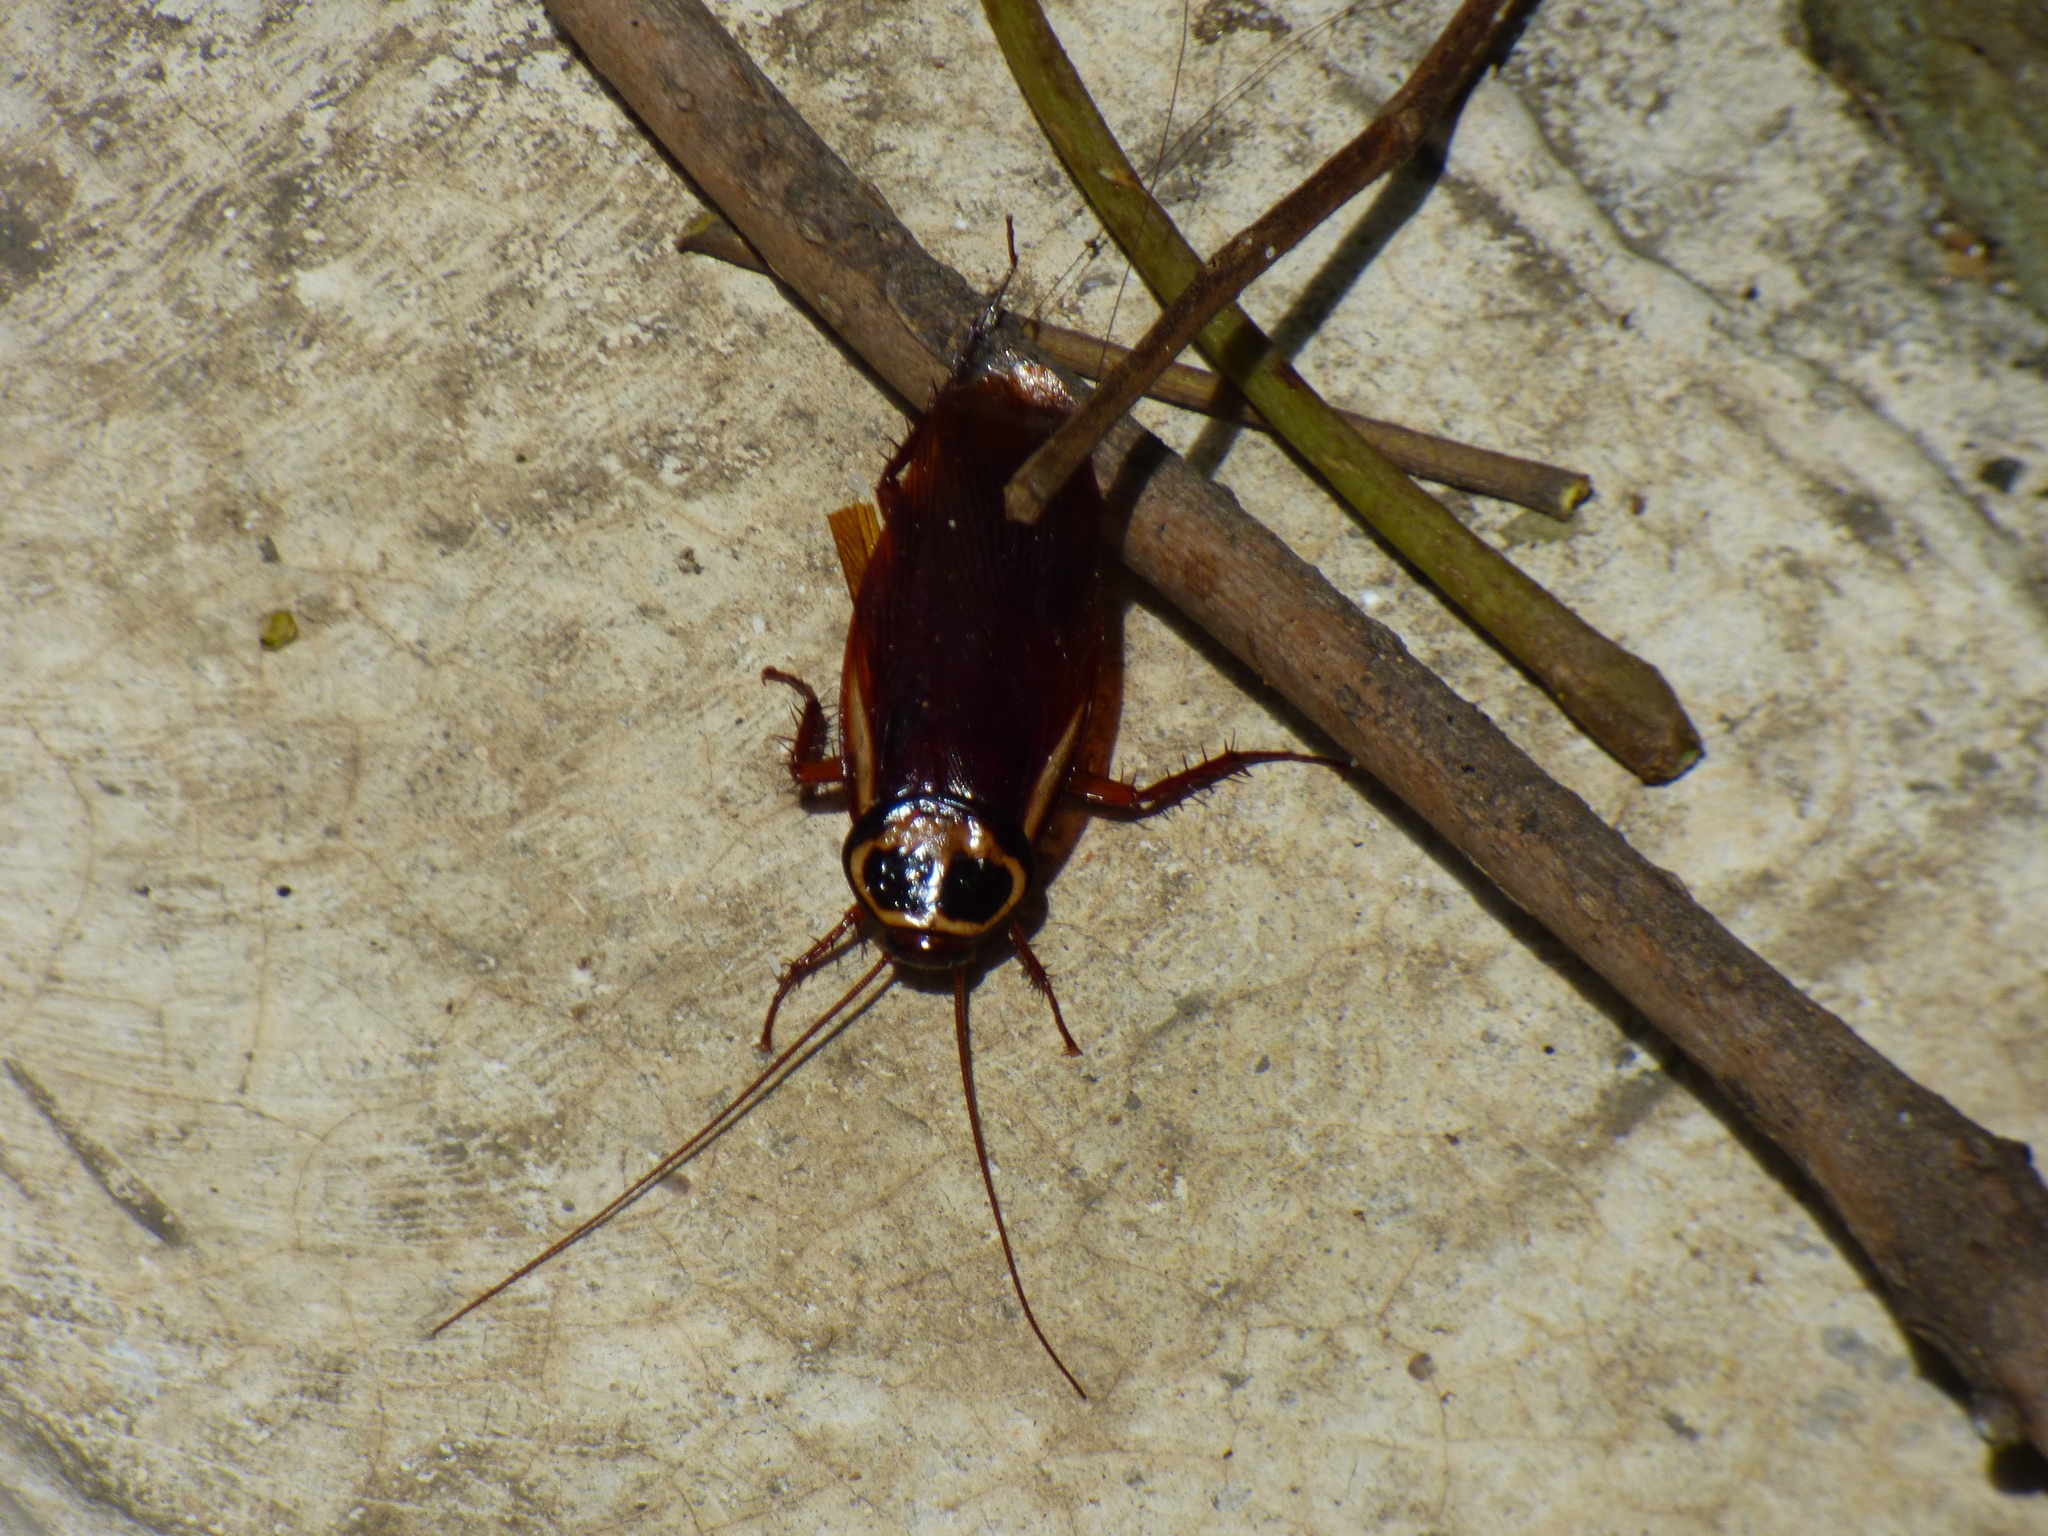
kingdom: Animalia
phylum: Arthropoda
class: Insecta
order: Blattodea
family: Blattidae
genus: Periplaneta
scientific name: Periplaneta americana
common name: American cockroach
